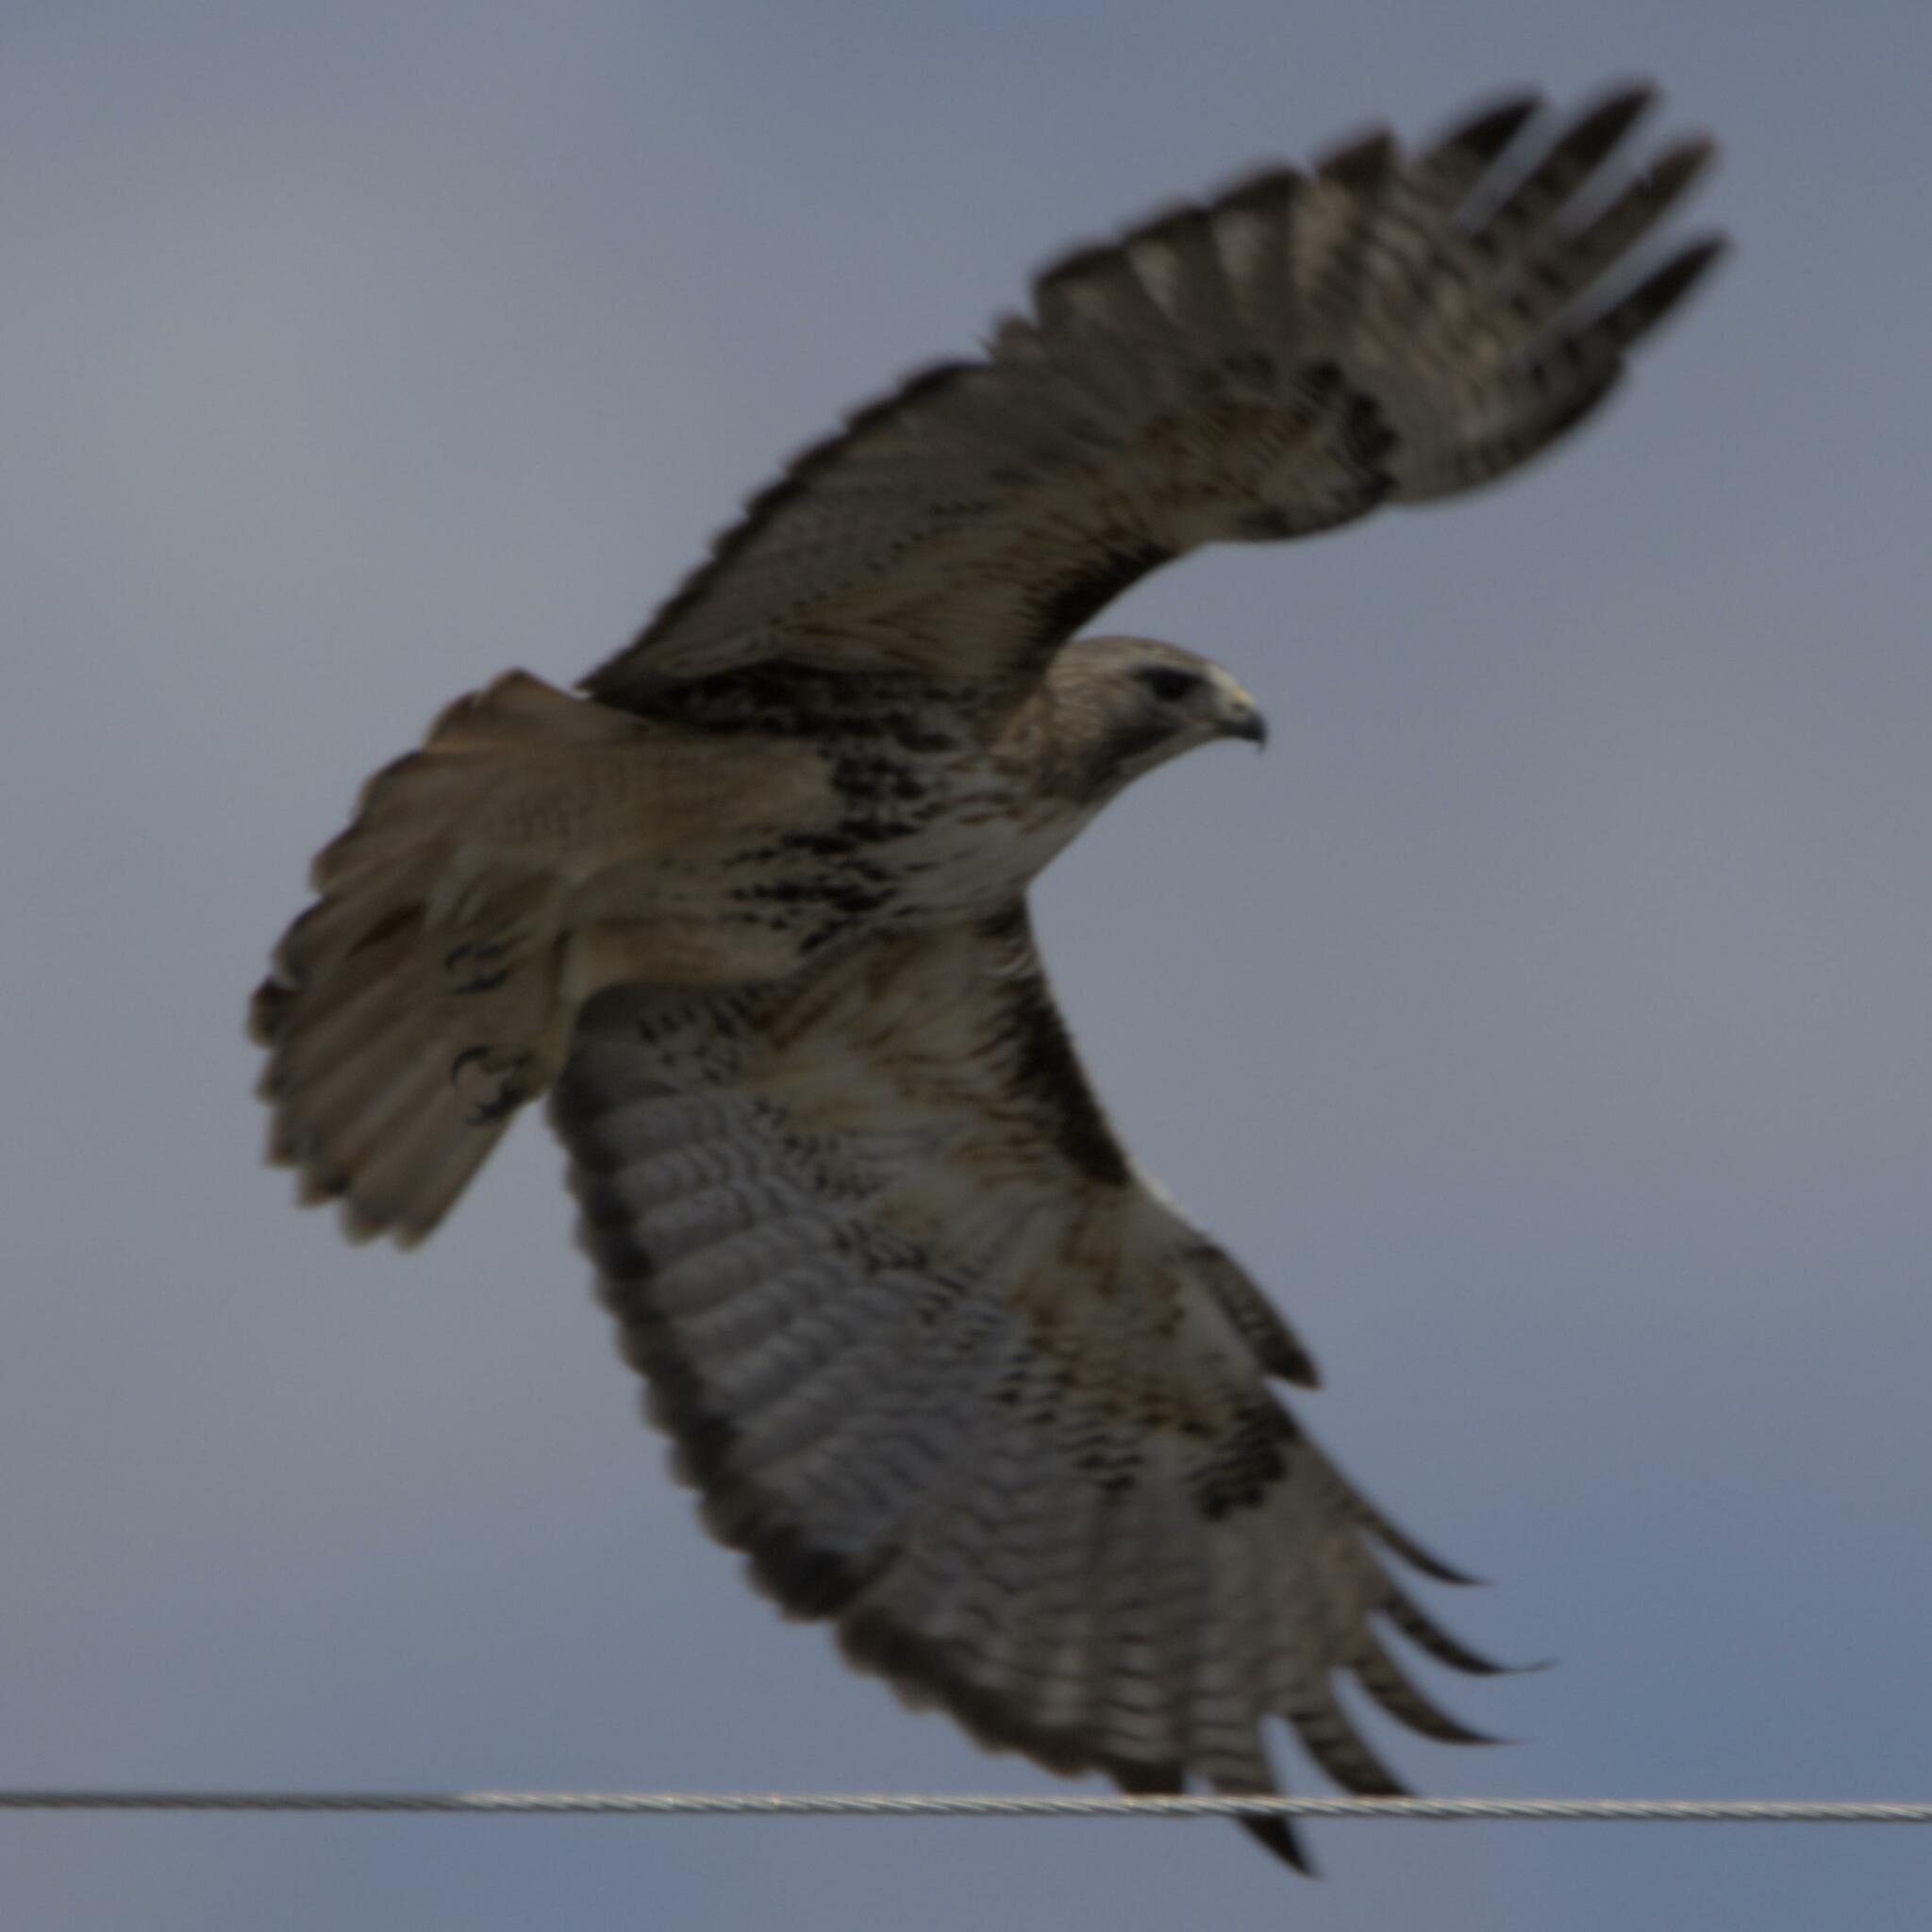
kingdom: Animalia
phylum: Chordata
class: Aves
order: Accipitriformes
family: Accipitridae
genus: Buteo
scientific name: Buteo jamaicensis
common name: Red-tailed hawk
